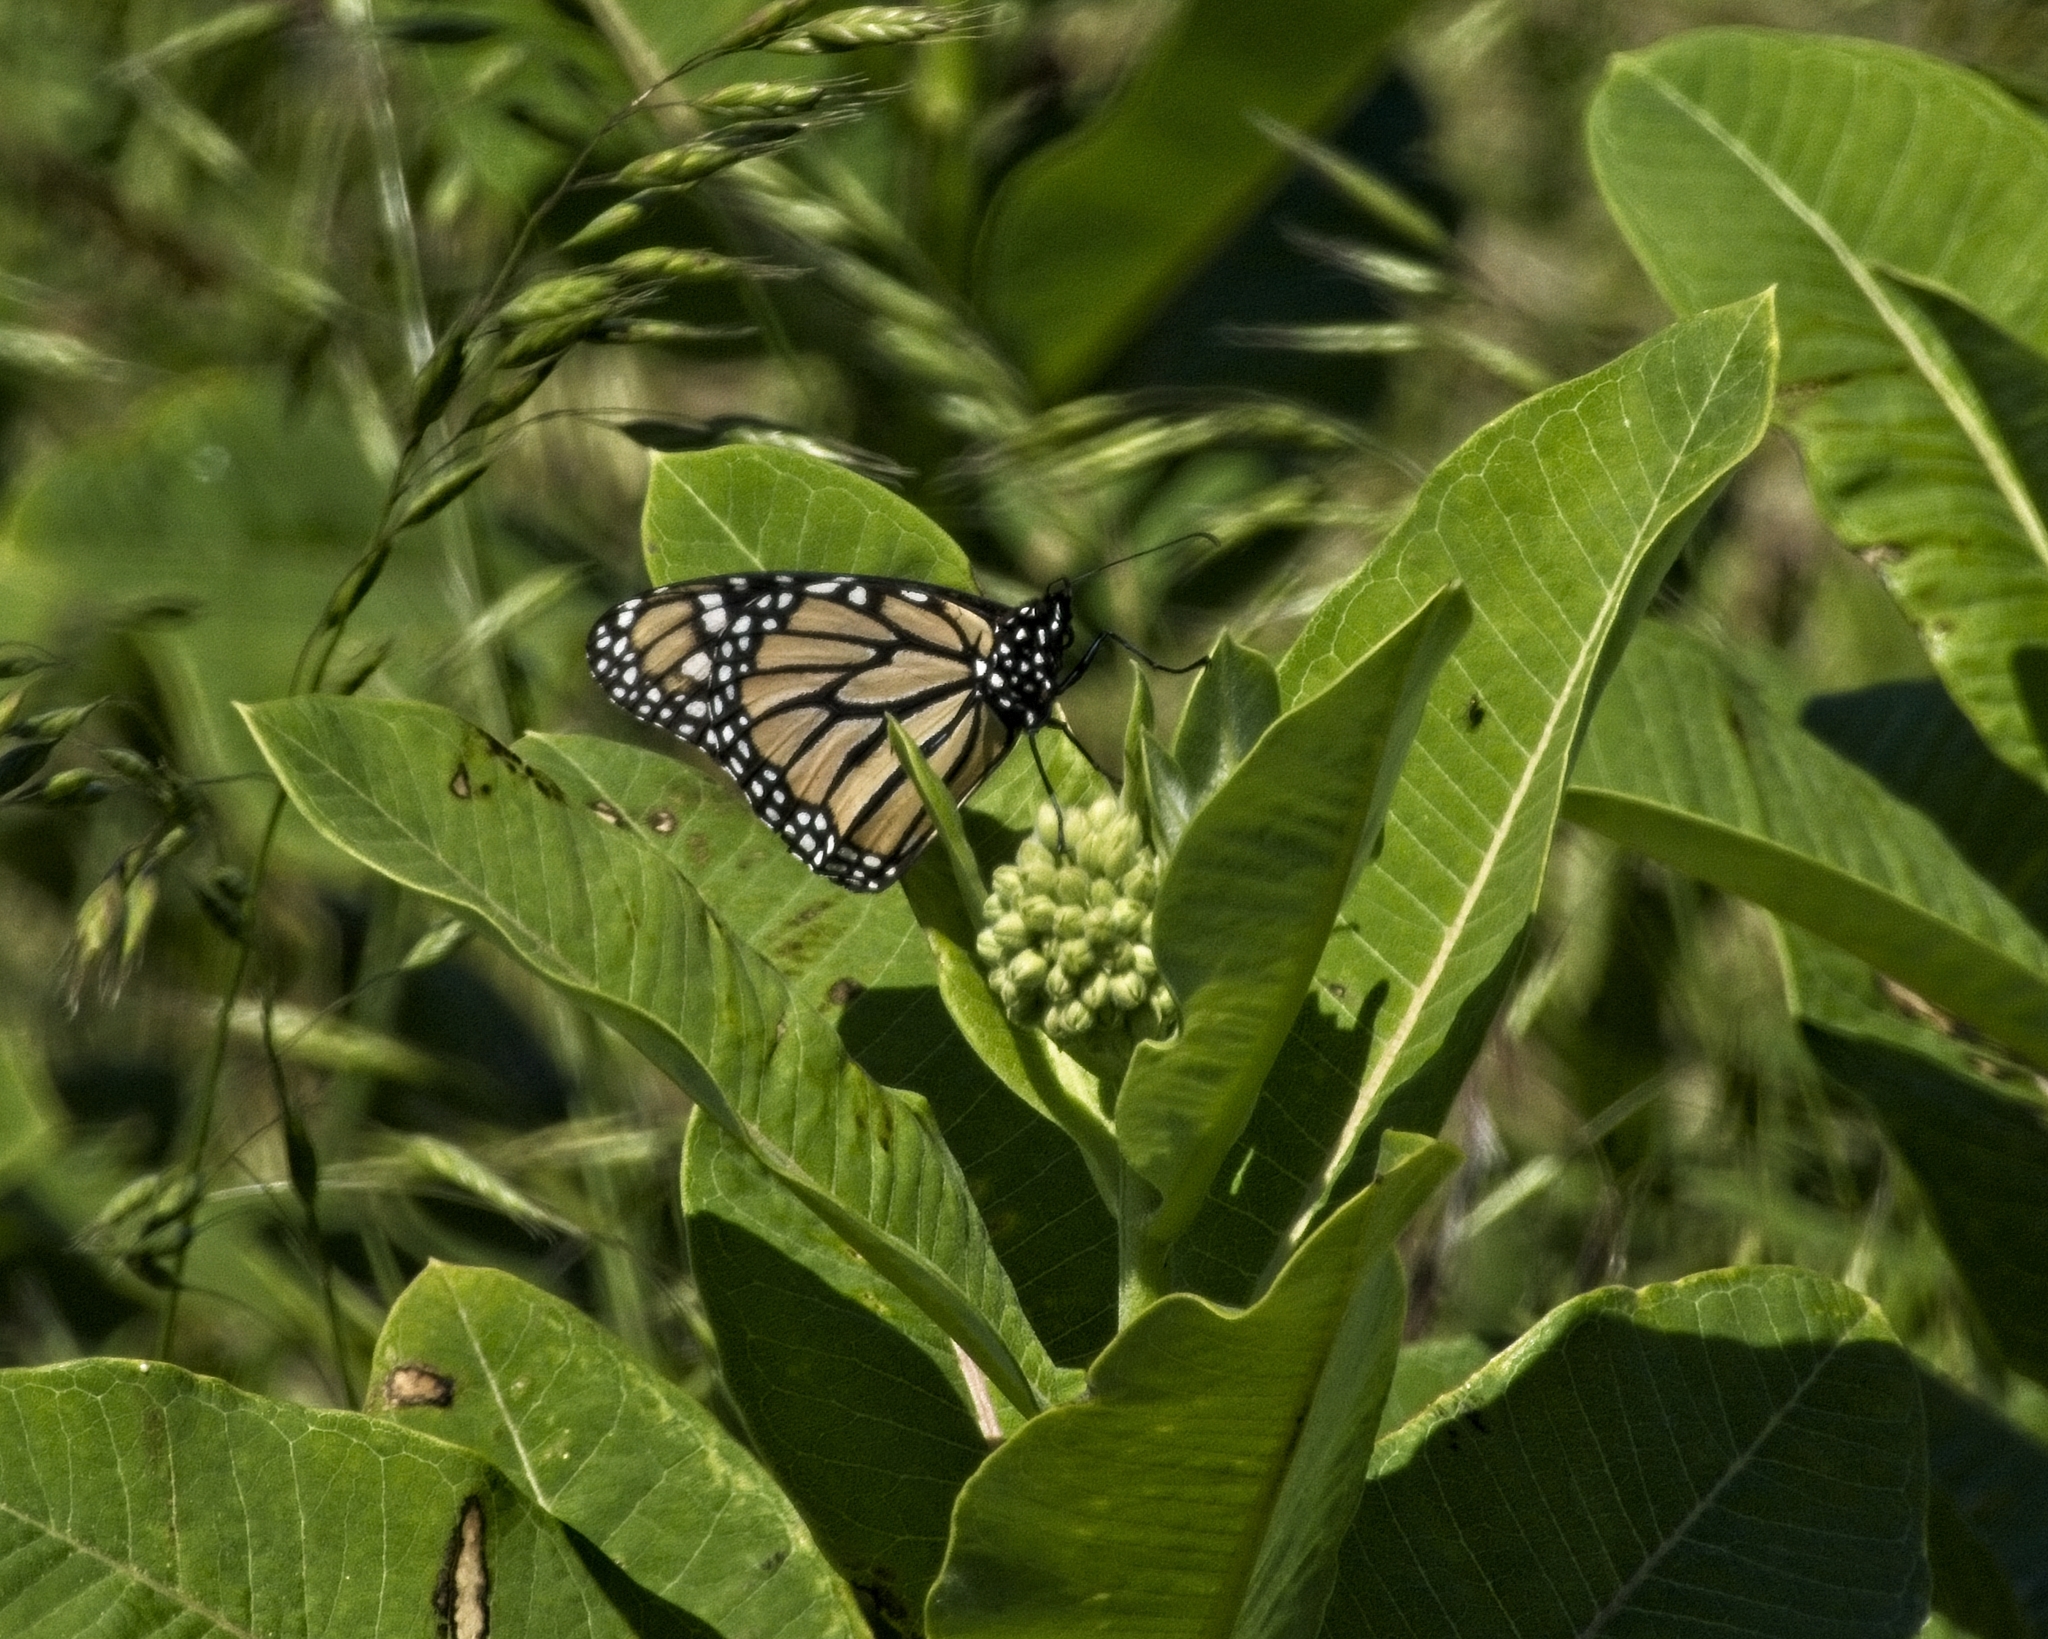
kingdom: Animalia
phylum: Arthropoda
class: Insecta
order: Lepidoptera
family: Nymphalidae
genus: Danaus
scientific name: Danaus plexippus
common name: Monarch
